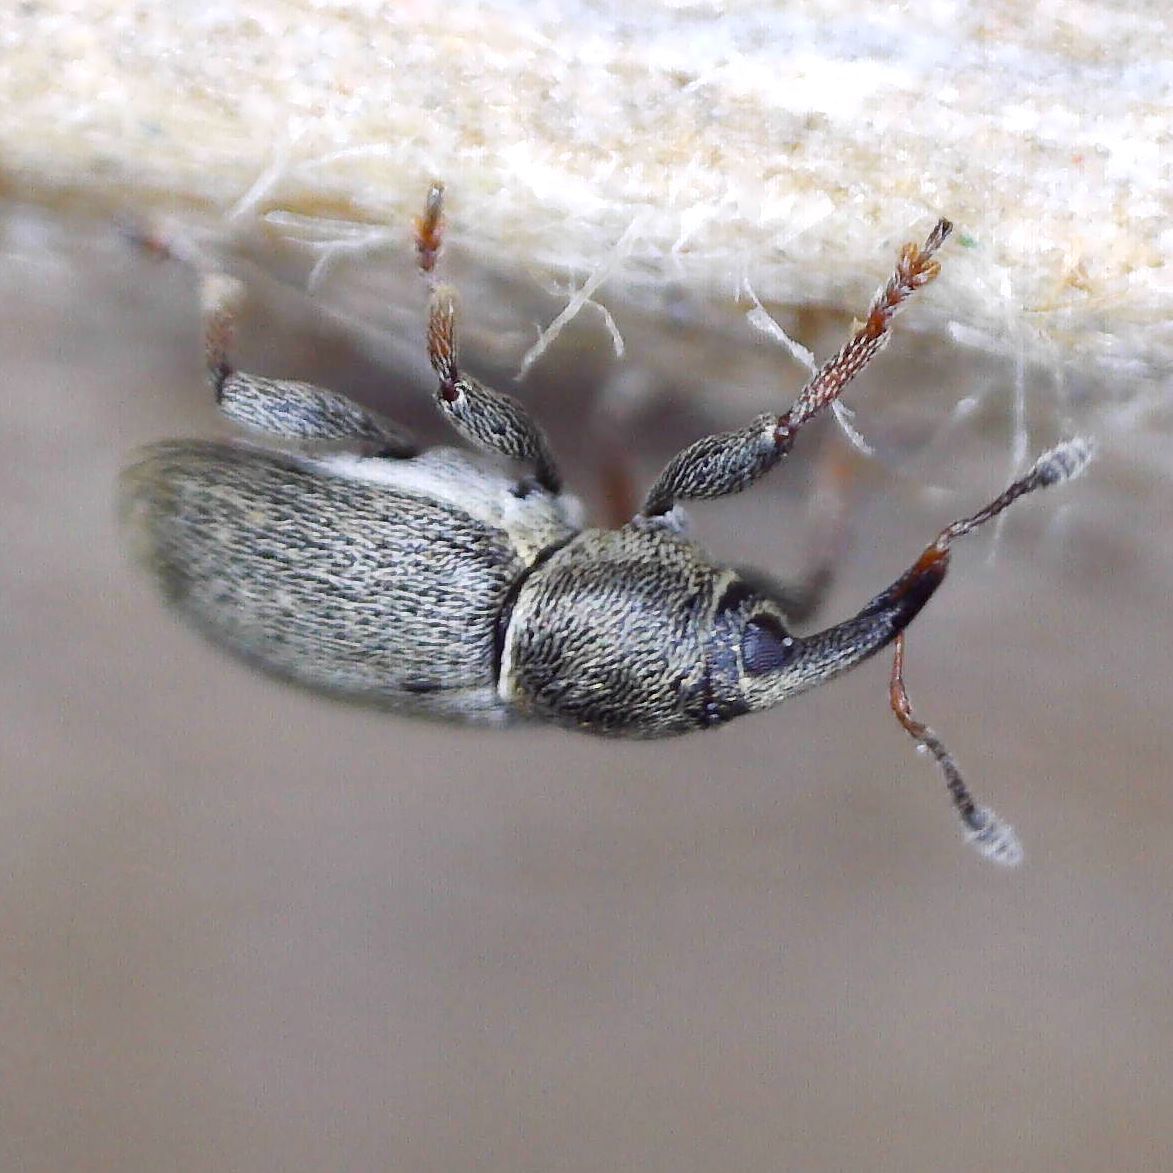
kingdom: Animalia
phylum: Arthropoda
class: Insecta
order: Coleoptera
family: Curculionidae
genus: Tychius
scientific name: Tychius picirostris
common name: Clover seed weevil
